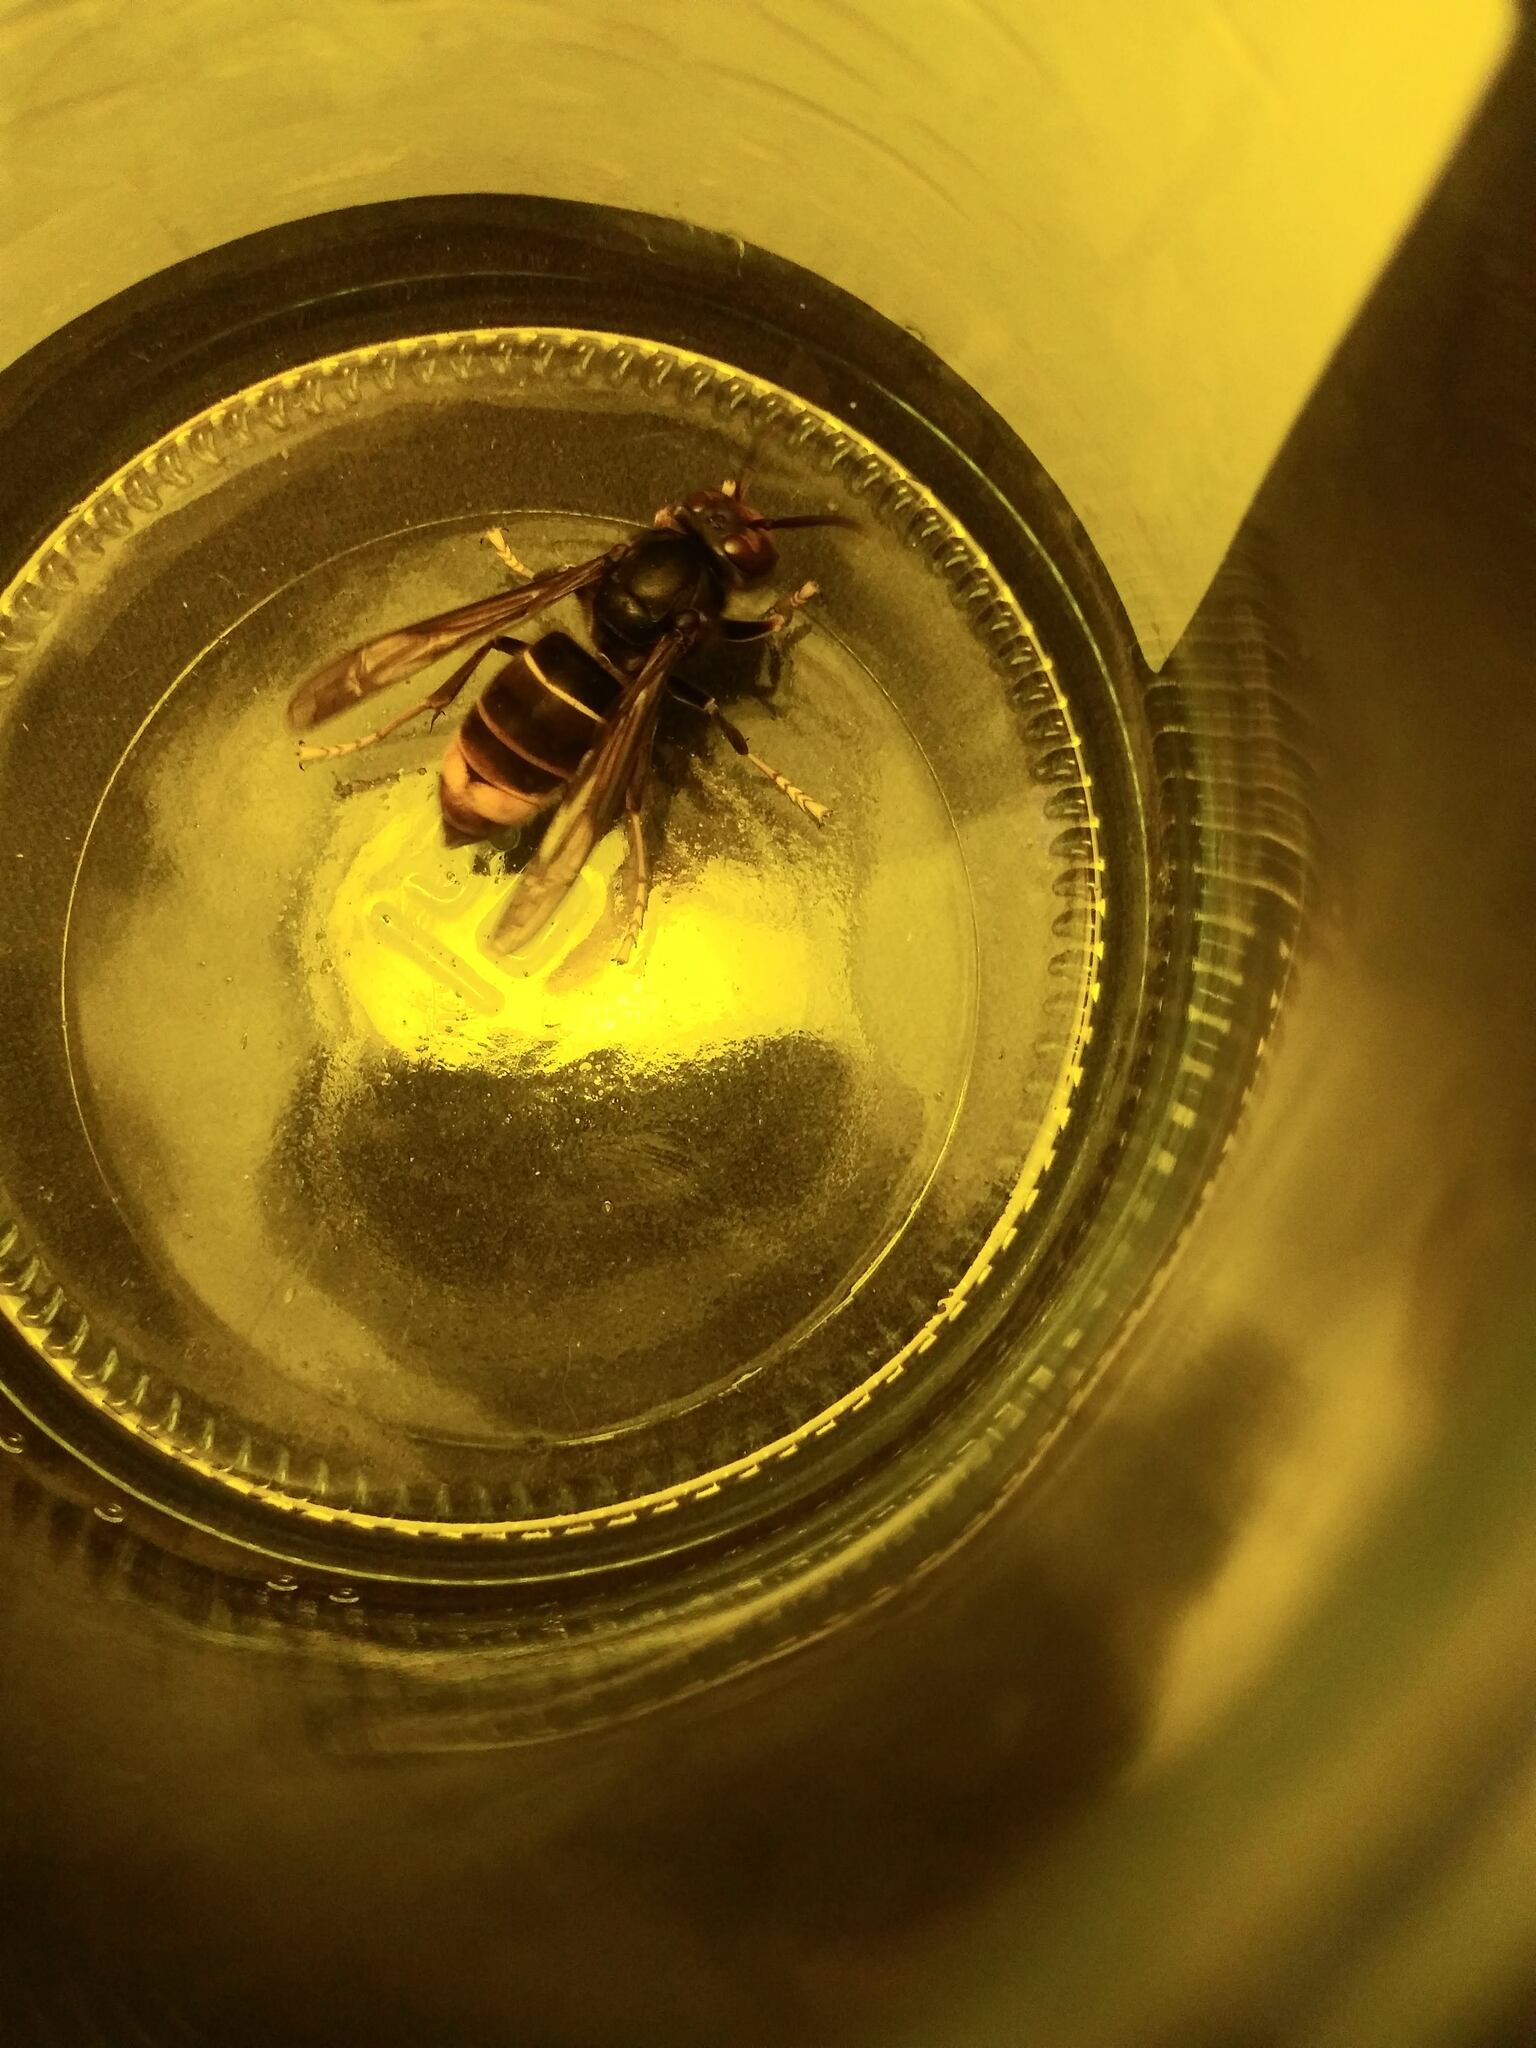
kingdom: Animalia
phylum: Arthropoda
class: Insecta
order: Hymenoptera
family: Vespidae
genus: Vespa
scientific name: Vespa velutina
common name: Asian hornet
